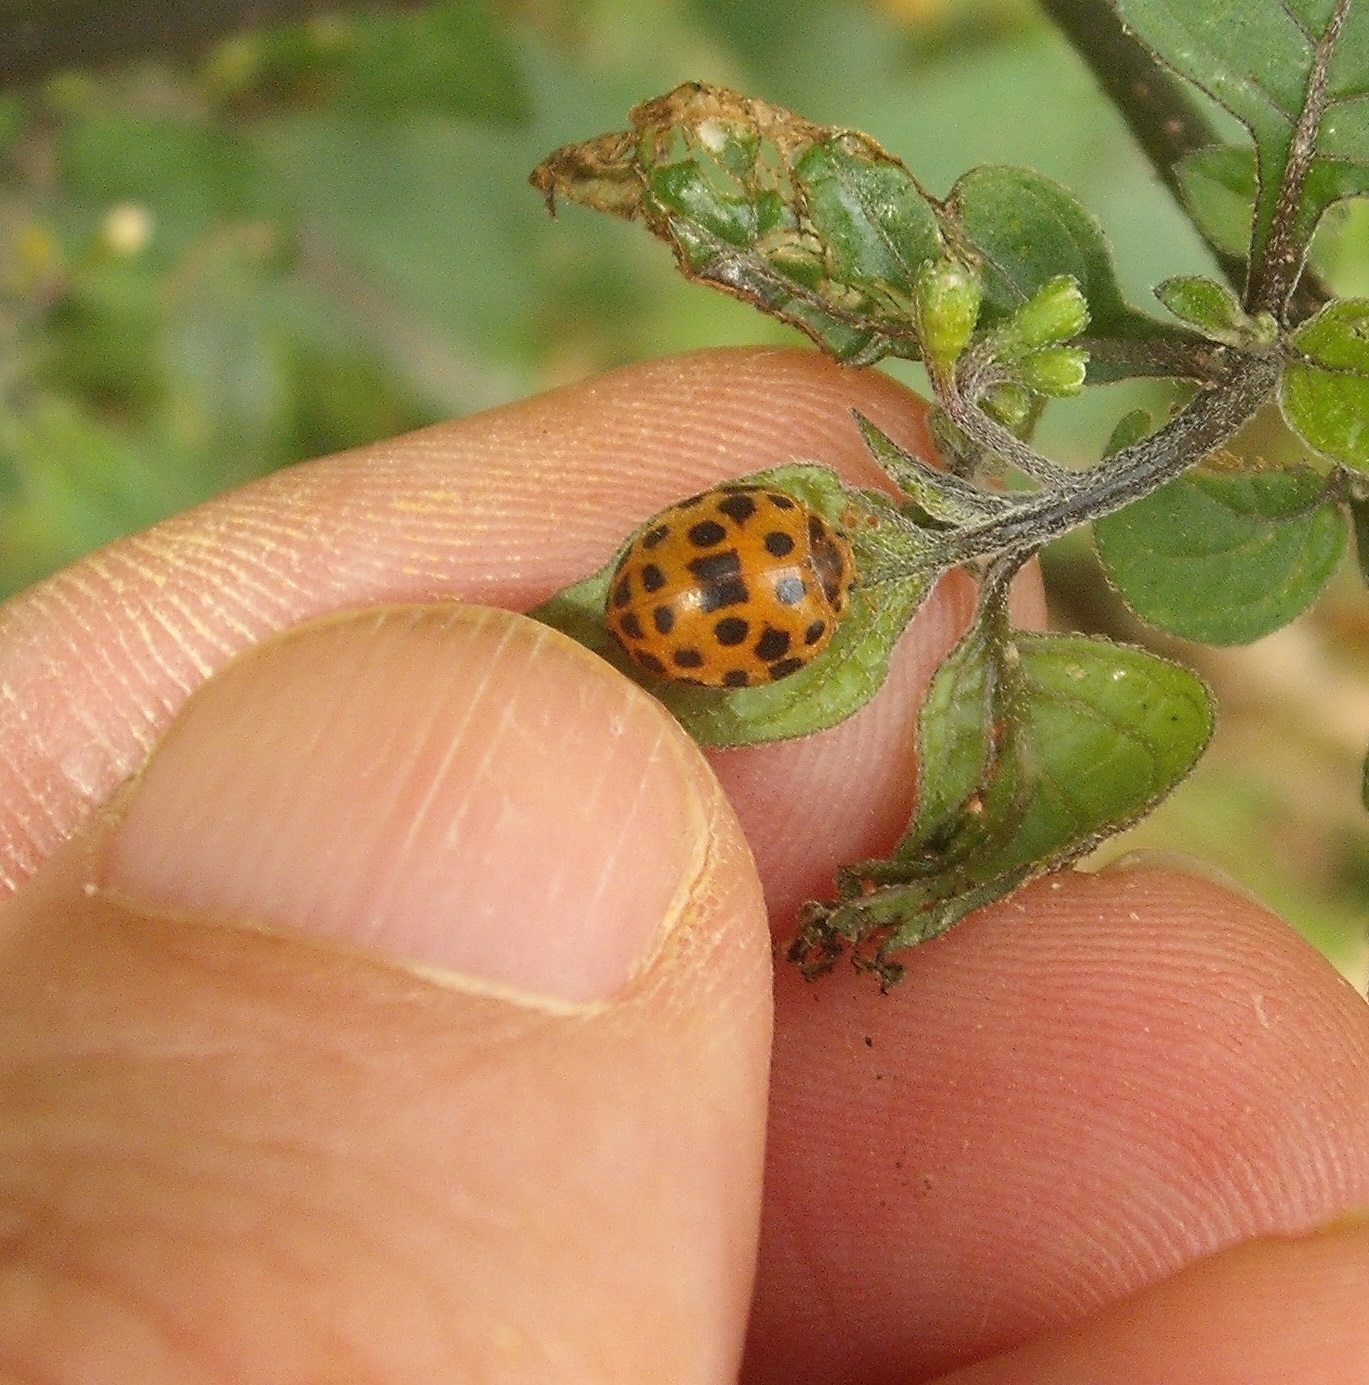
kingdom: Animalia
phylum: Arthropoda
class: Insecta
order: Coleoptera
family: Coccinellidae
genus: Henosepilachna
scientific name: Henosepilachna vigintioctopunctata
